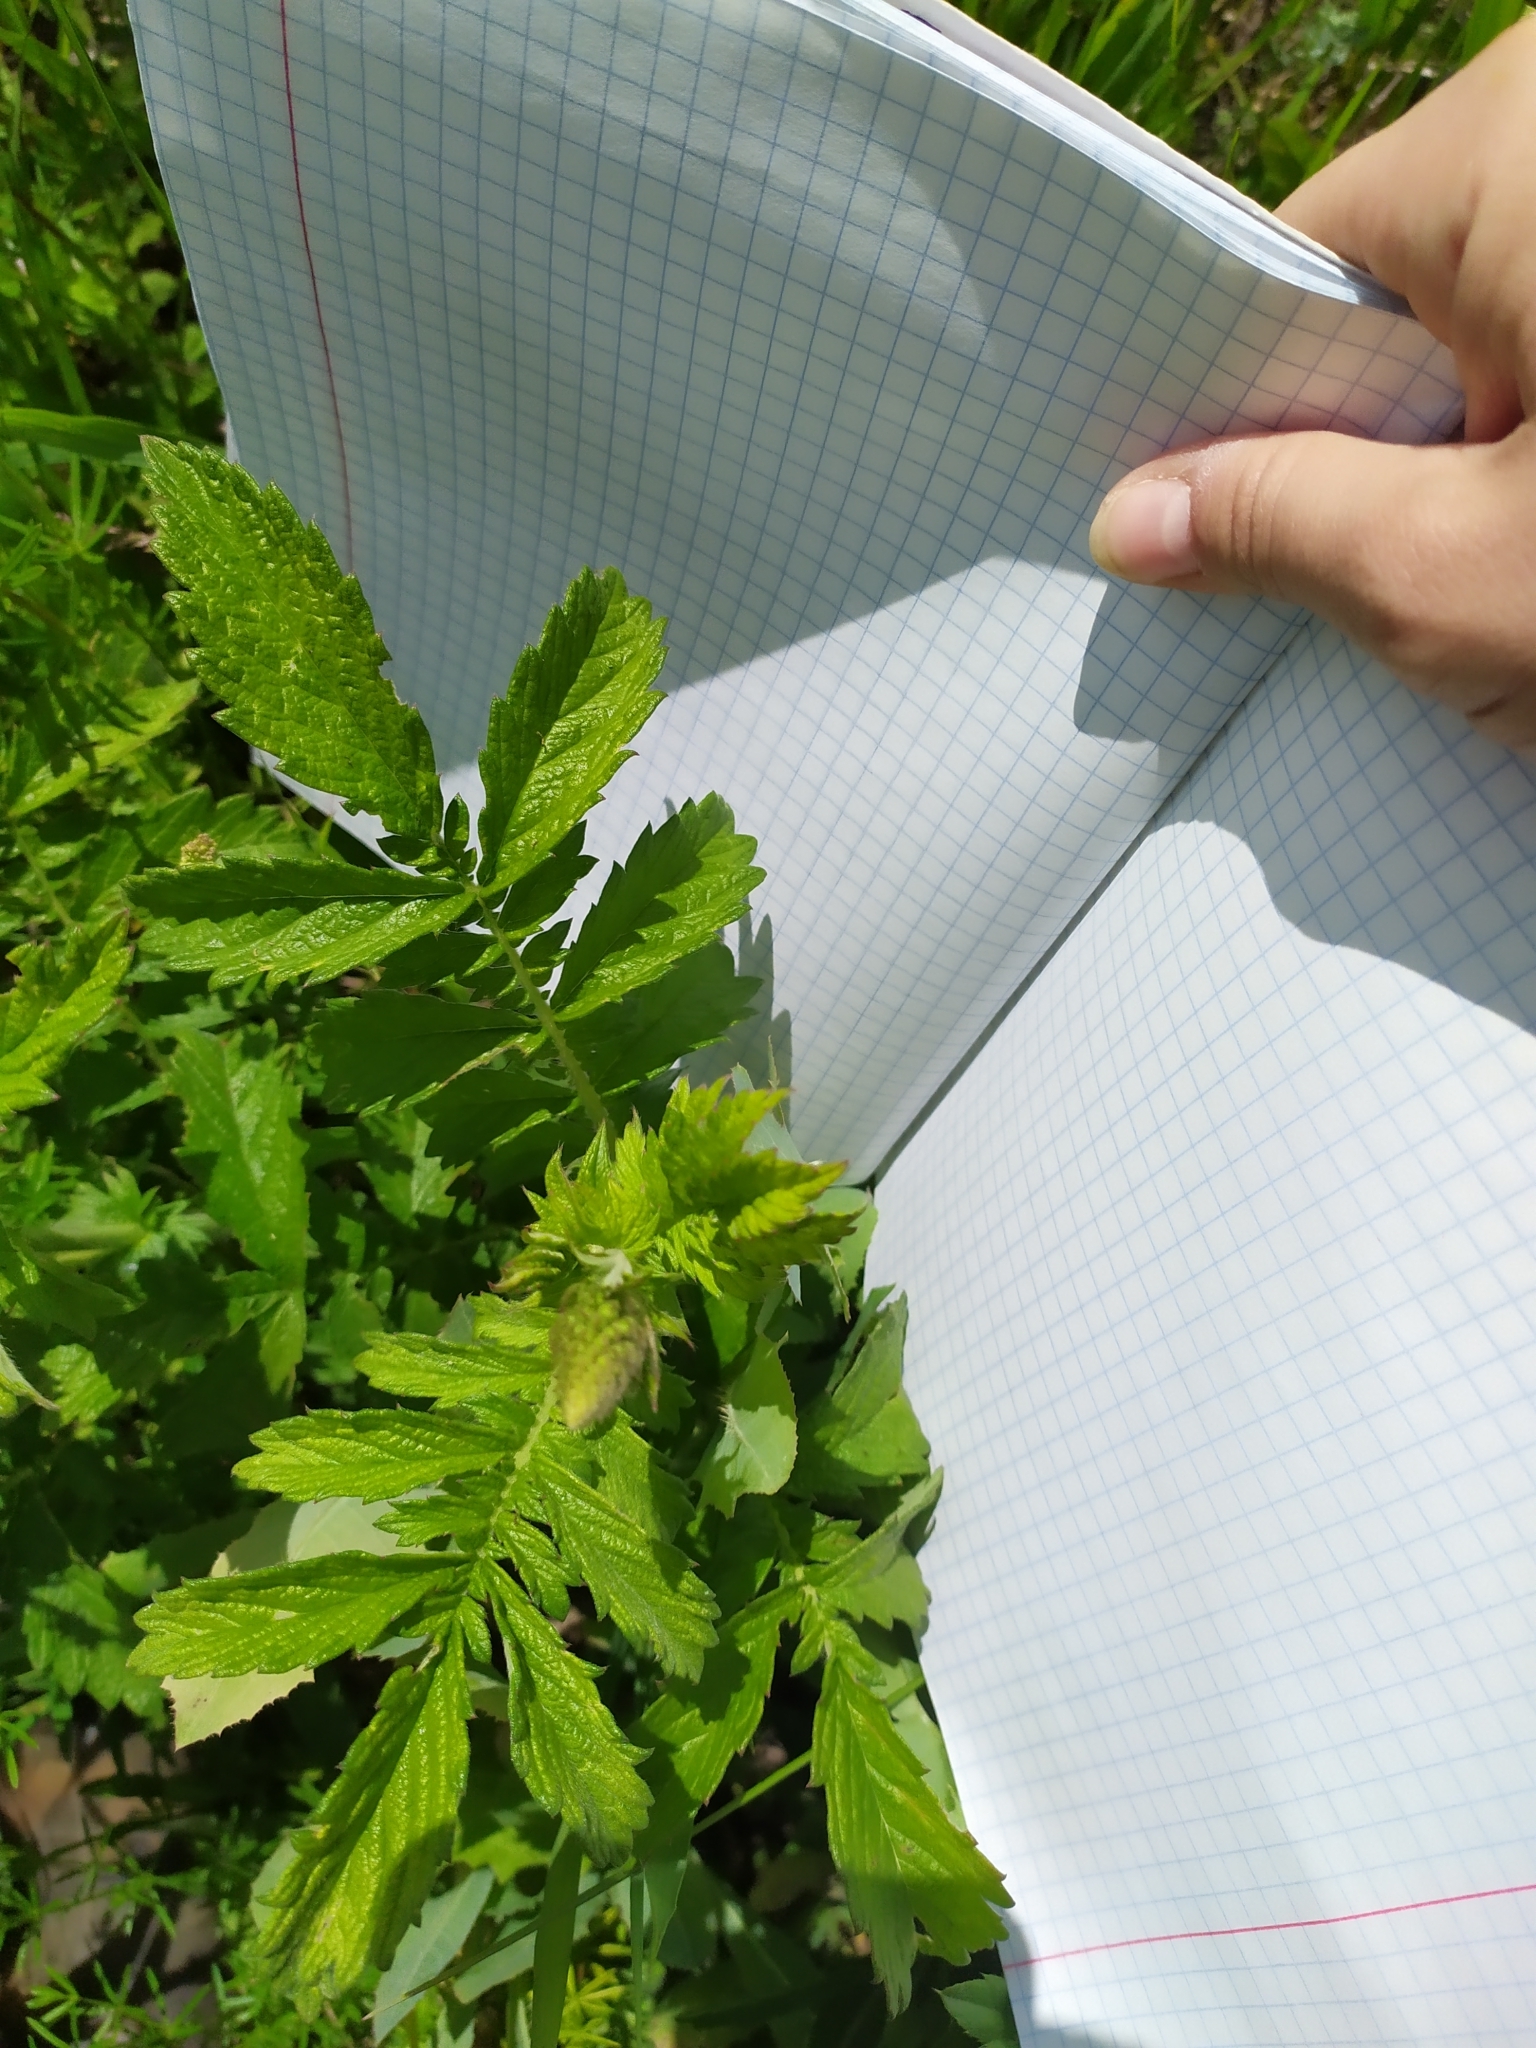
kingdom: Plantae
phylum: Tracheophyta
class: Magnoliopsida
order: Rosales
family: Rosaceae
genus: Agrimonia
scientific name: Agrimonia eupatoria
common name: Agrimony
